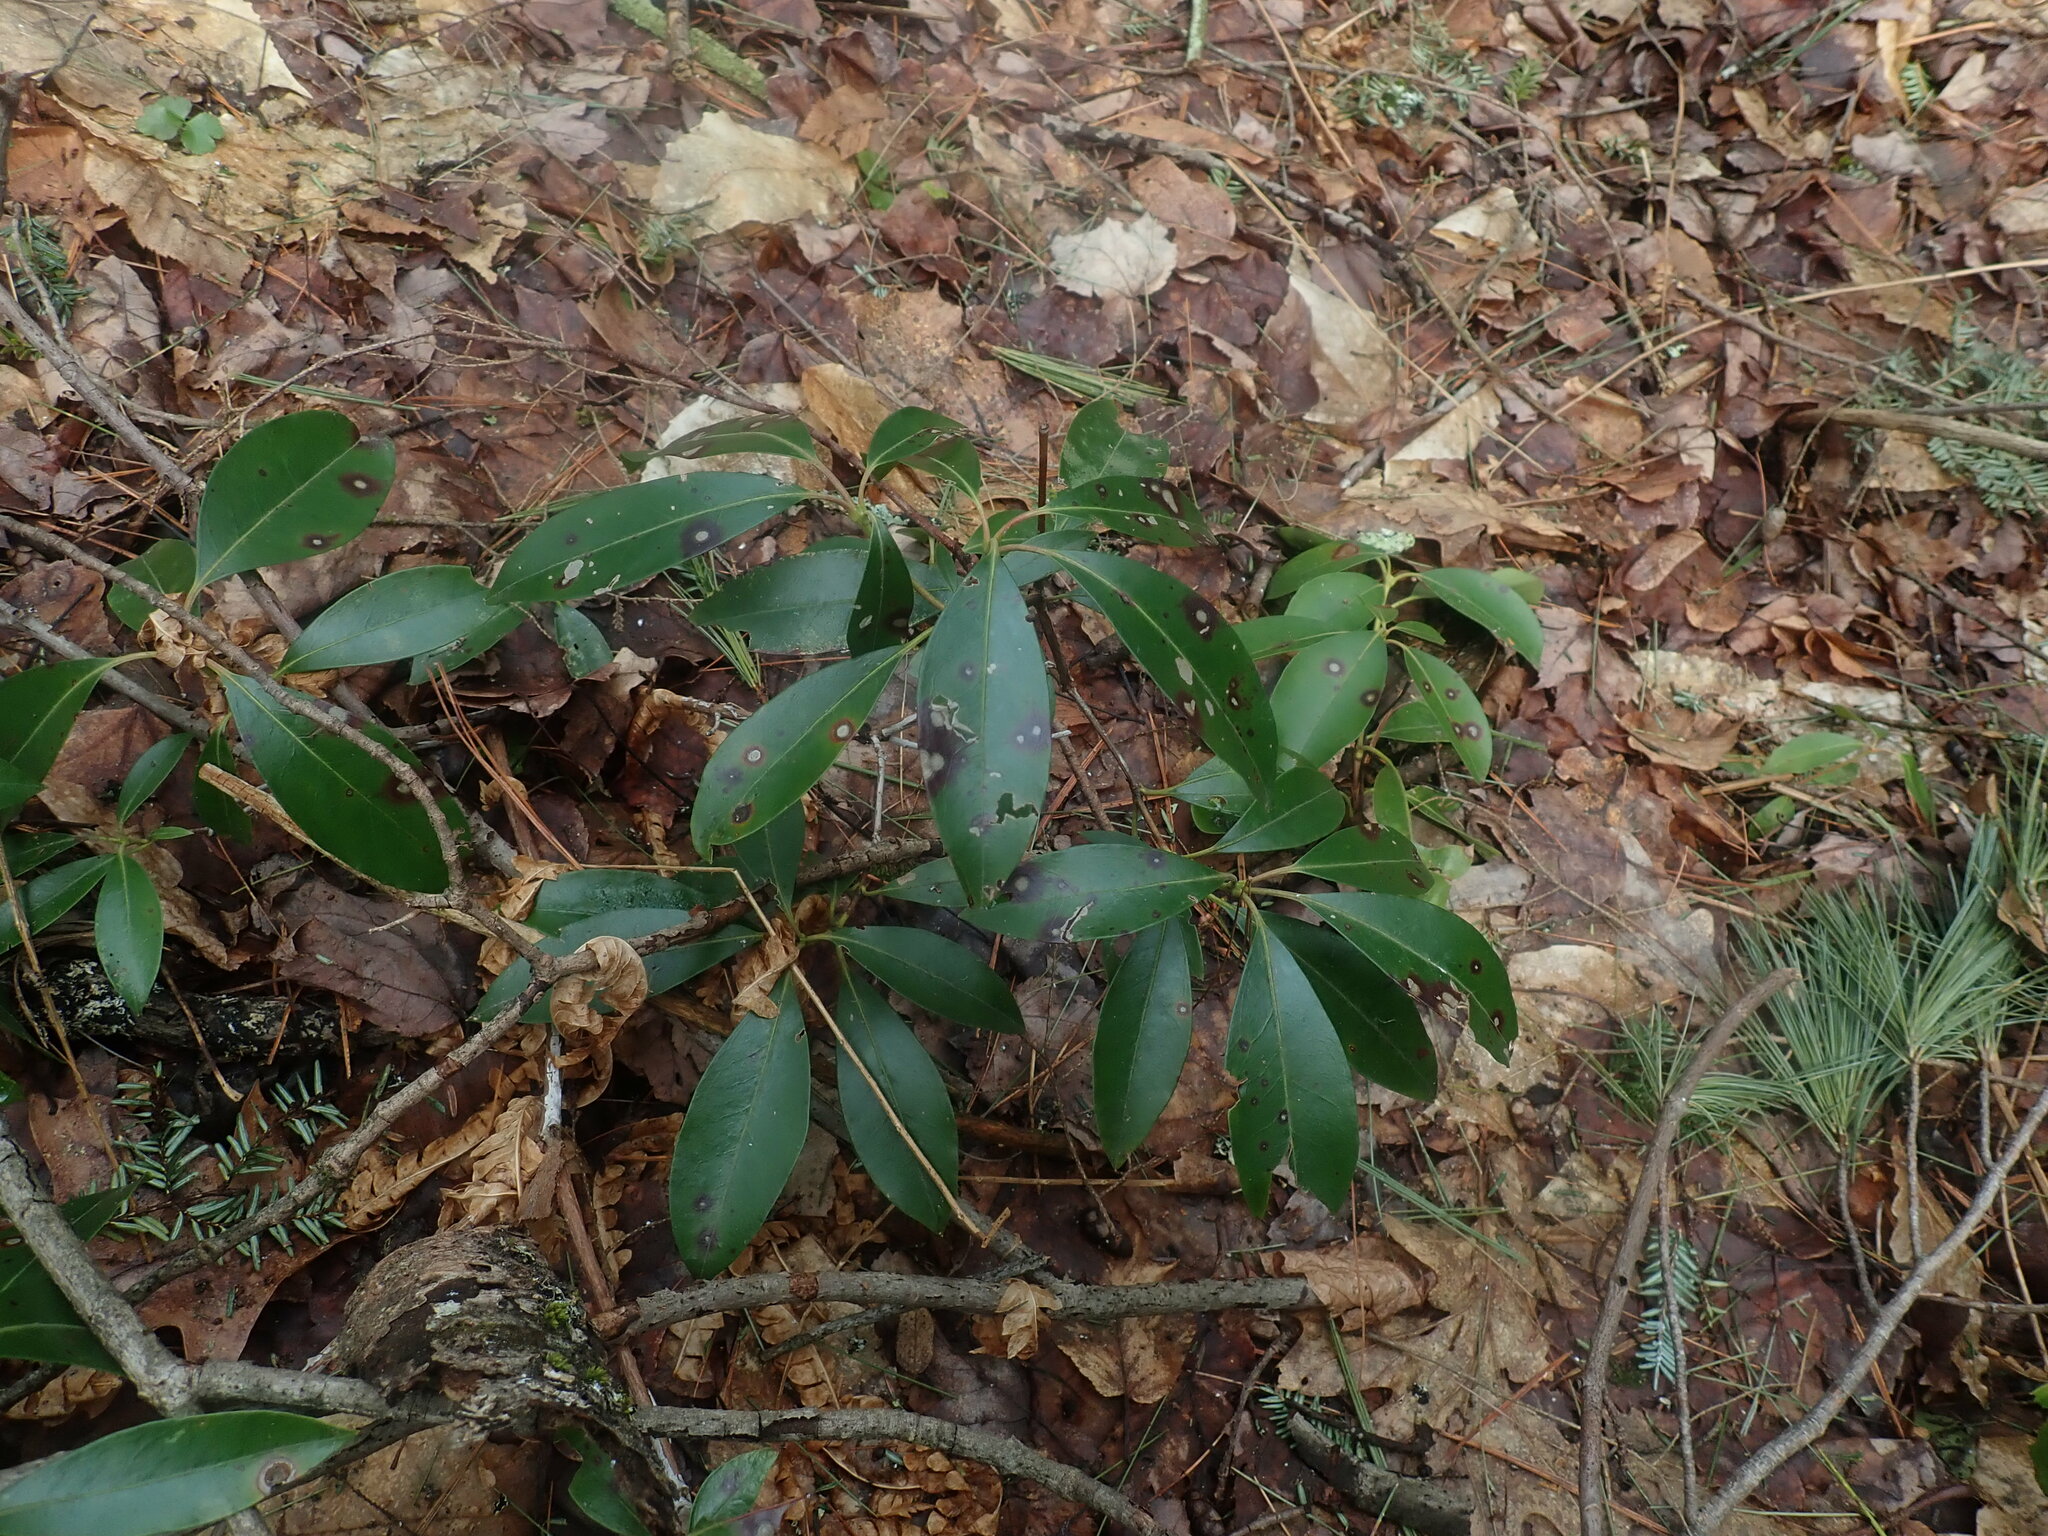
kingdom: Plantae
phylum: Tracheophyta
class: Magnoliopsida
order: Ericales
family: Ericaceae
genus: Kalmia
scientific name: Kalmia latifolia
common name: Mountain-laurel
